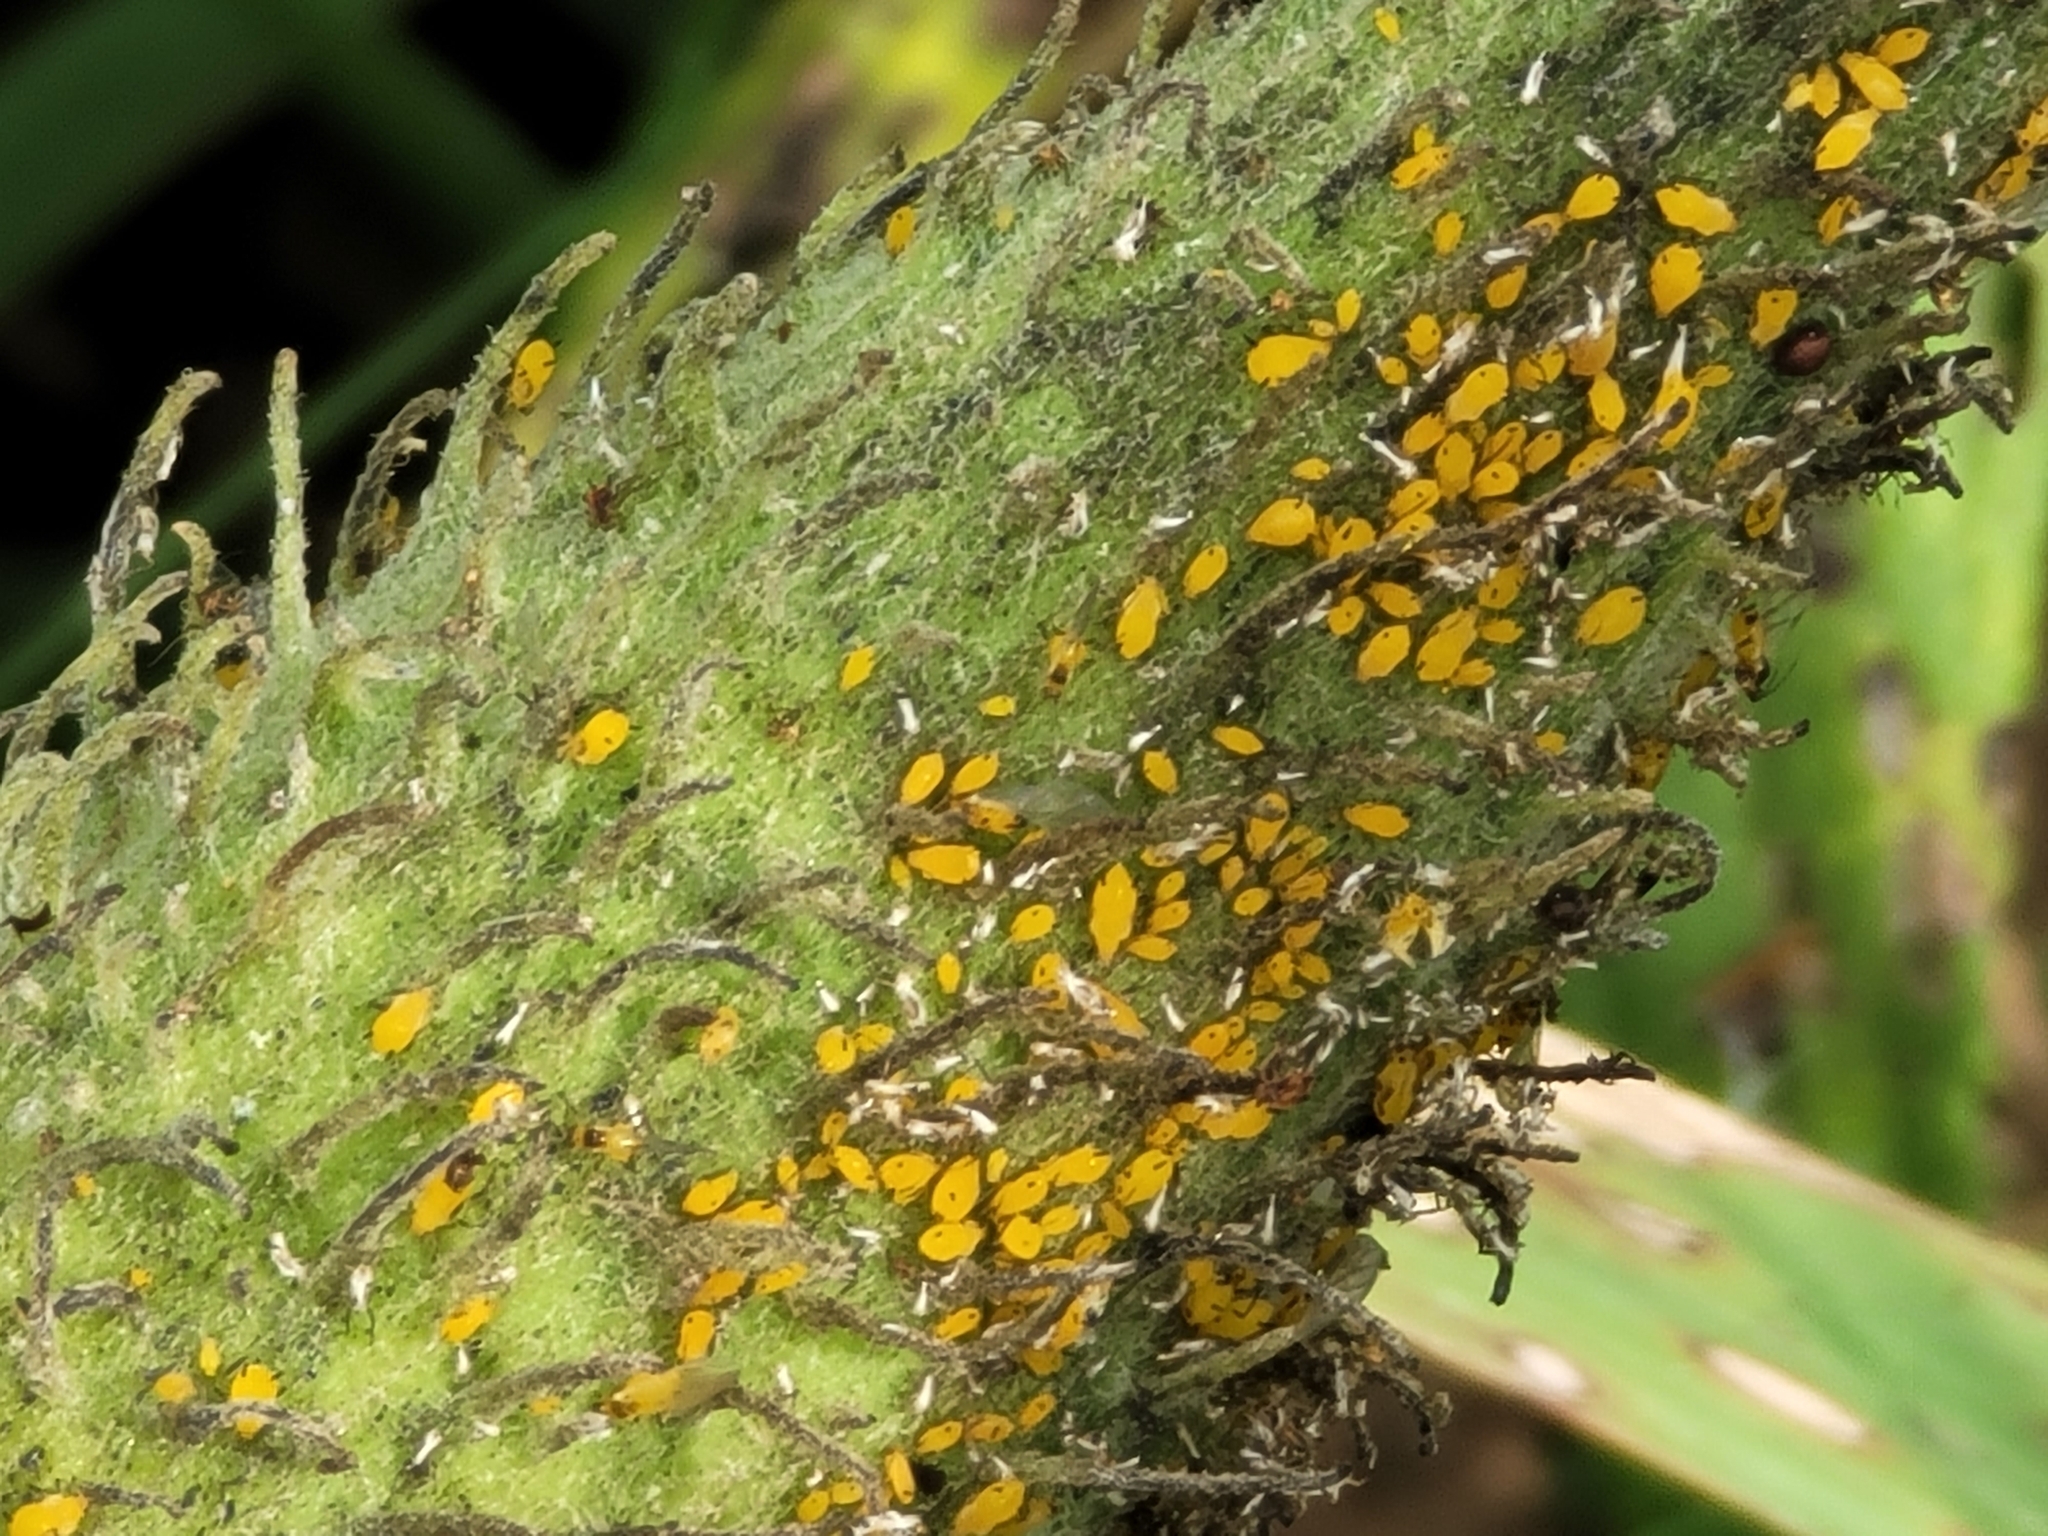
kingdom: Animalia
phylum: Arthropoda
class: Insecta
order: Hemiptera
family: Aphididae
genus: Aphis
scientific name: Aphis nerii
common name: Oleander aphid
